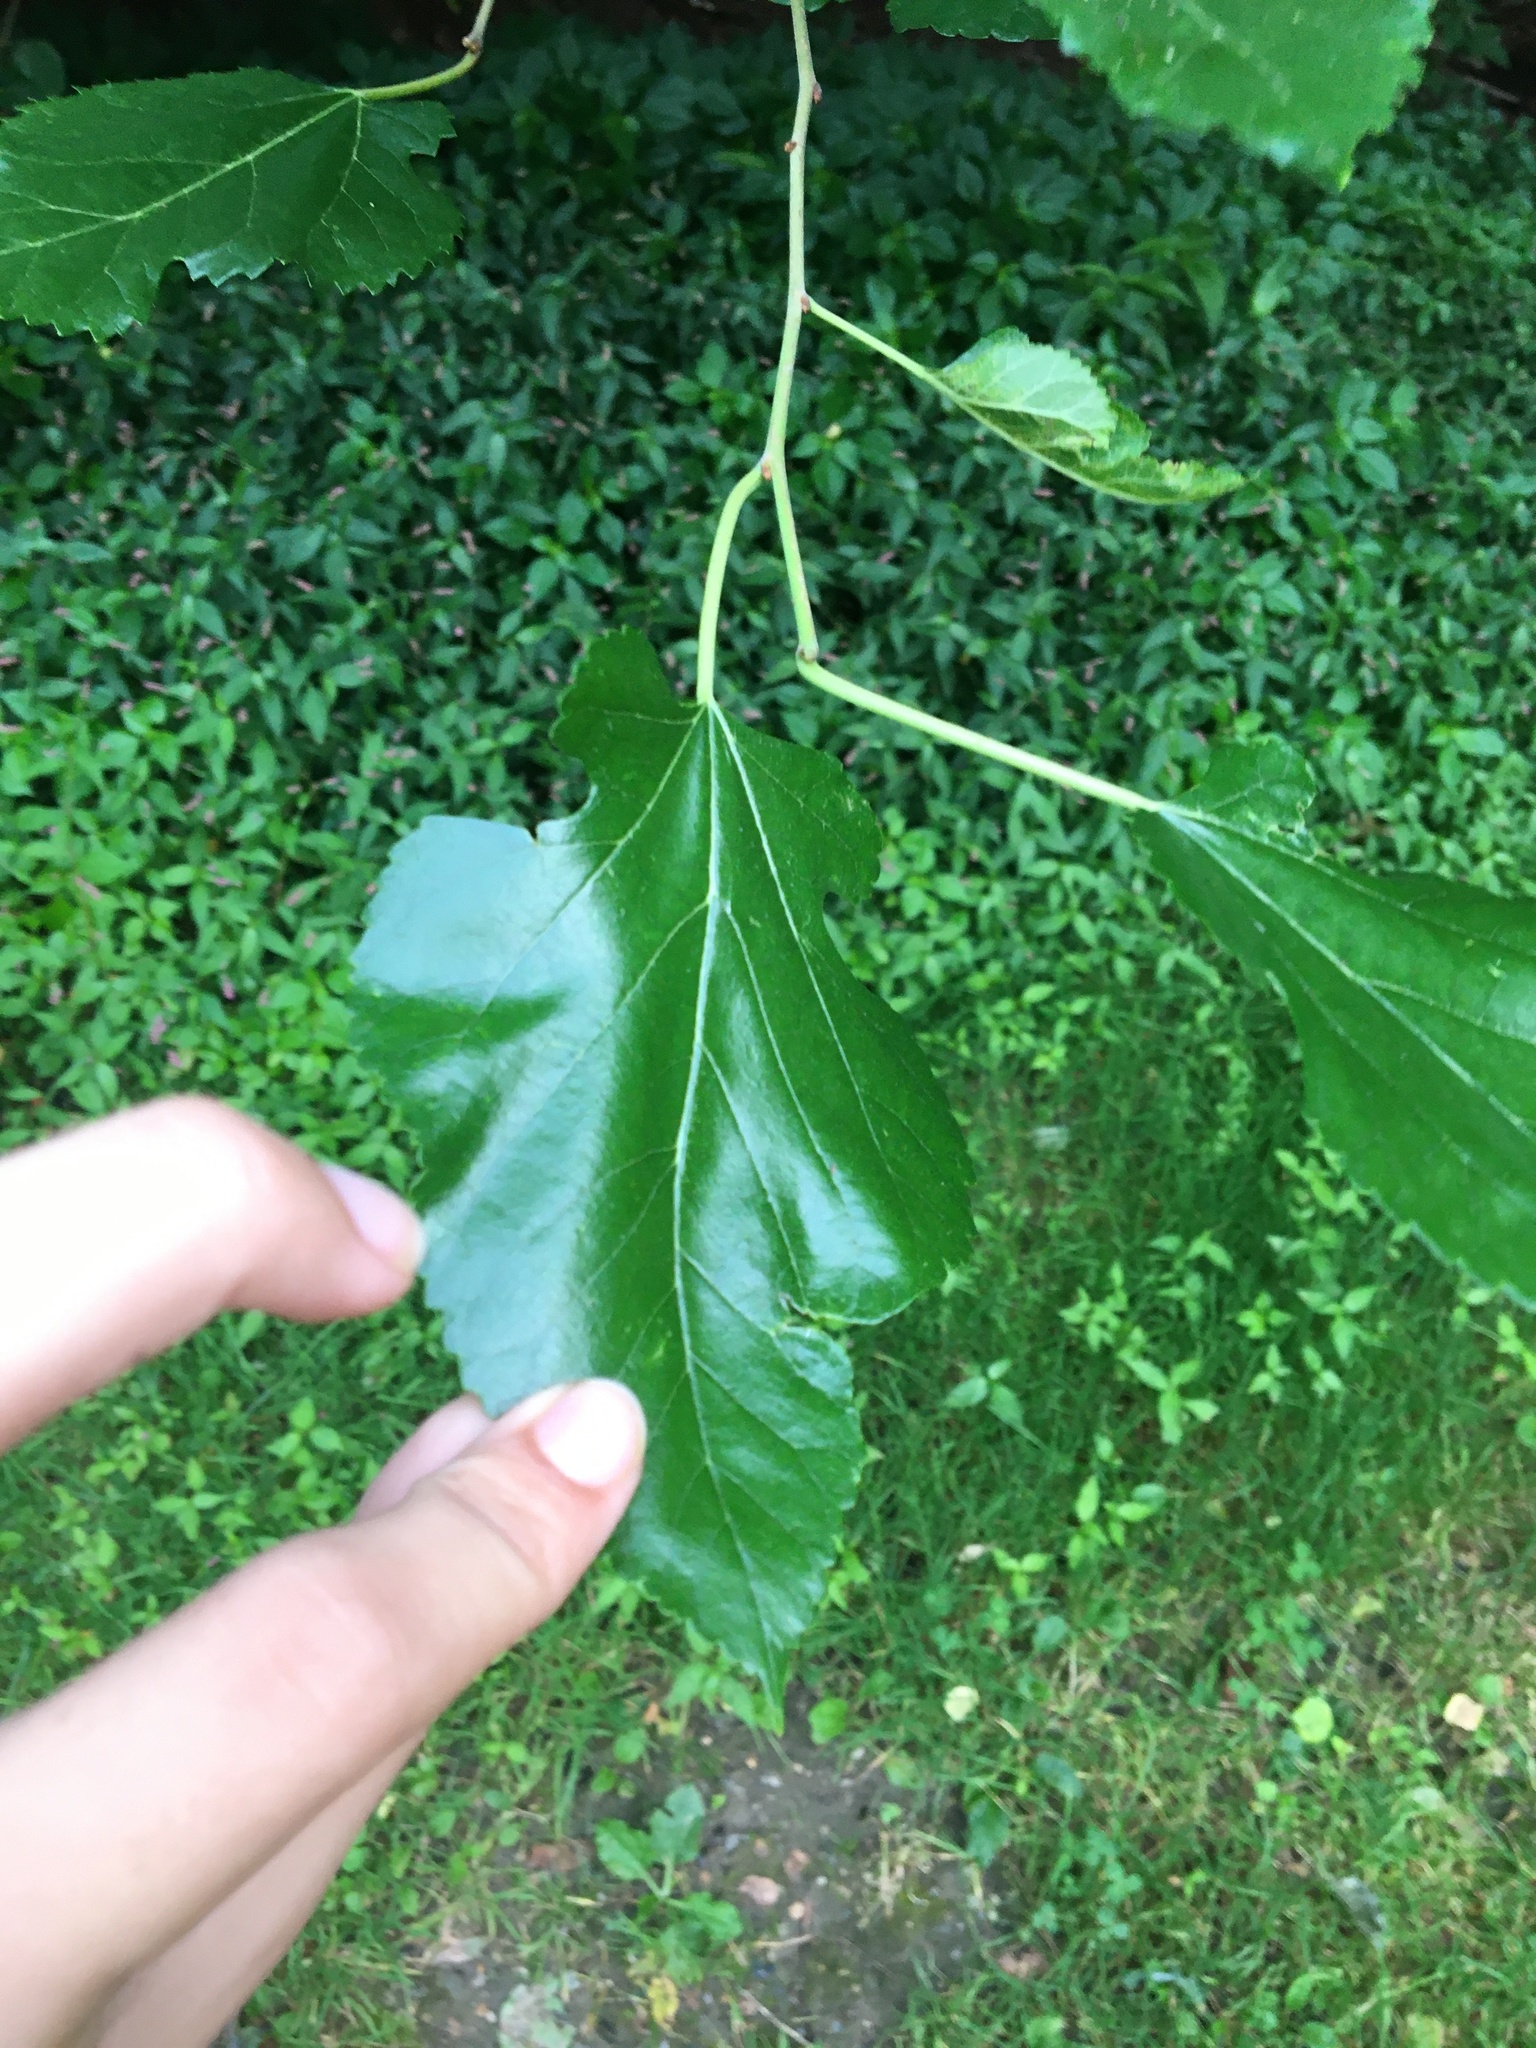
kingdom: Plantae
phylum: Tracheophyta
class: Magnoliopsida
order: Rosales
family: Moraceae
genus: Morus
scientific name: Morus alba
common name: White mulberry
